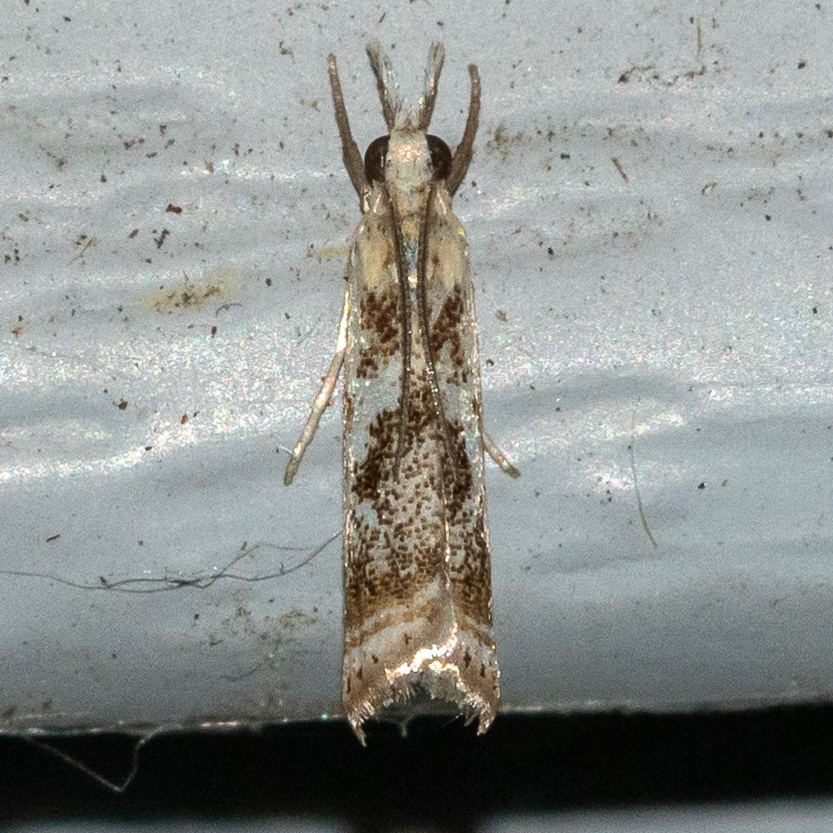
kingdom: Animalia
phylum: Arthropoda
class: Insecta
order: Lepidoptera
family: Crambidae
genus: Microcrambus
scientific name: Microcrambus elegans
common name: Elegant grass-veneer
